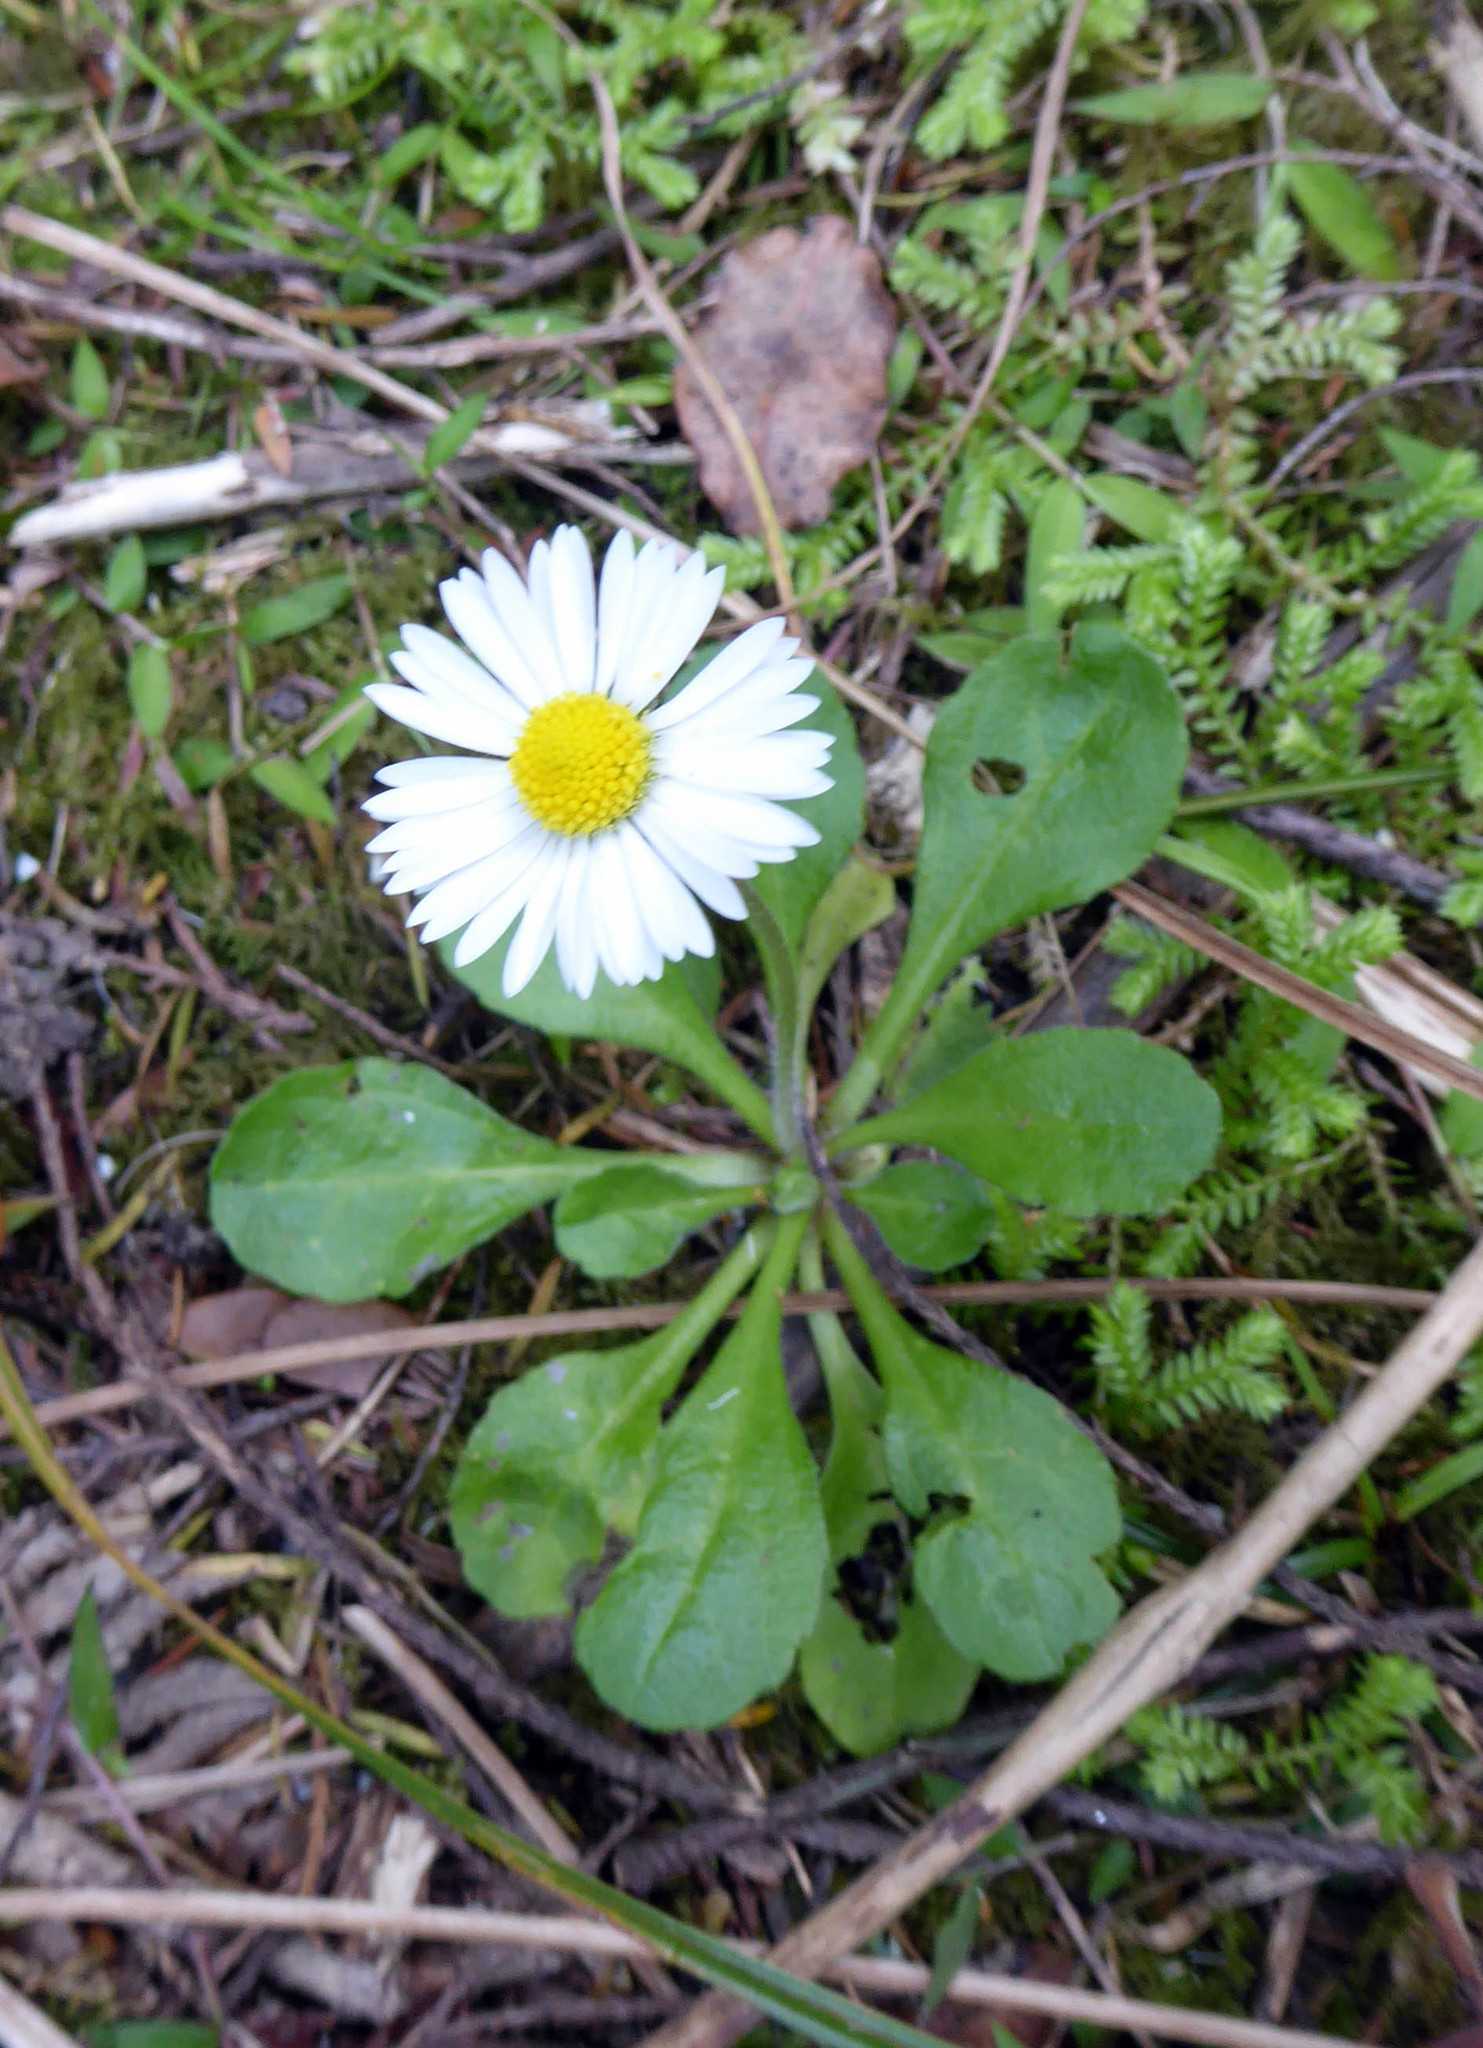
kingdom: Plantae
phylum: Tracheophyta
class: Magnoliopsida
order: Asterales
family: Asteraceae
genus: Bellis
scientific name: Bellis perennis
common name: Lawndaisy
